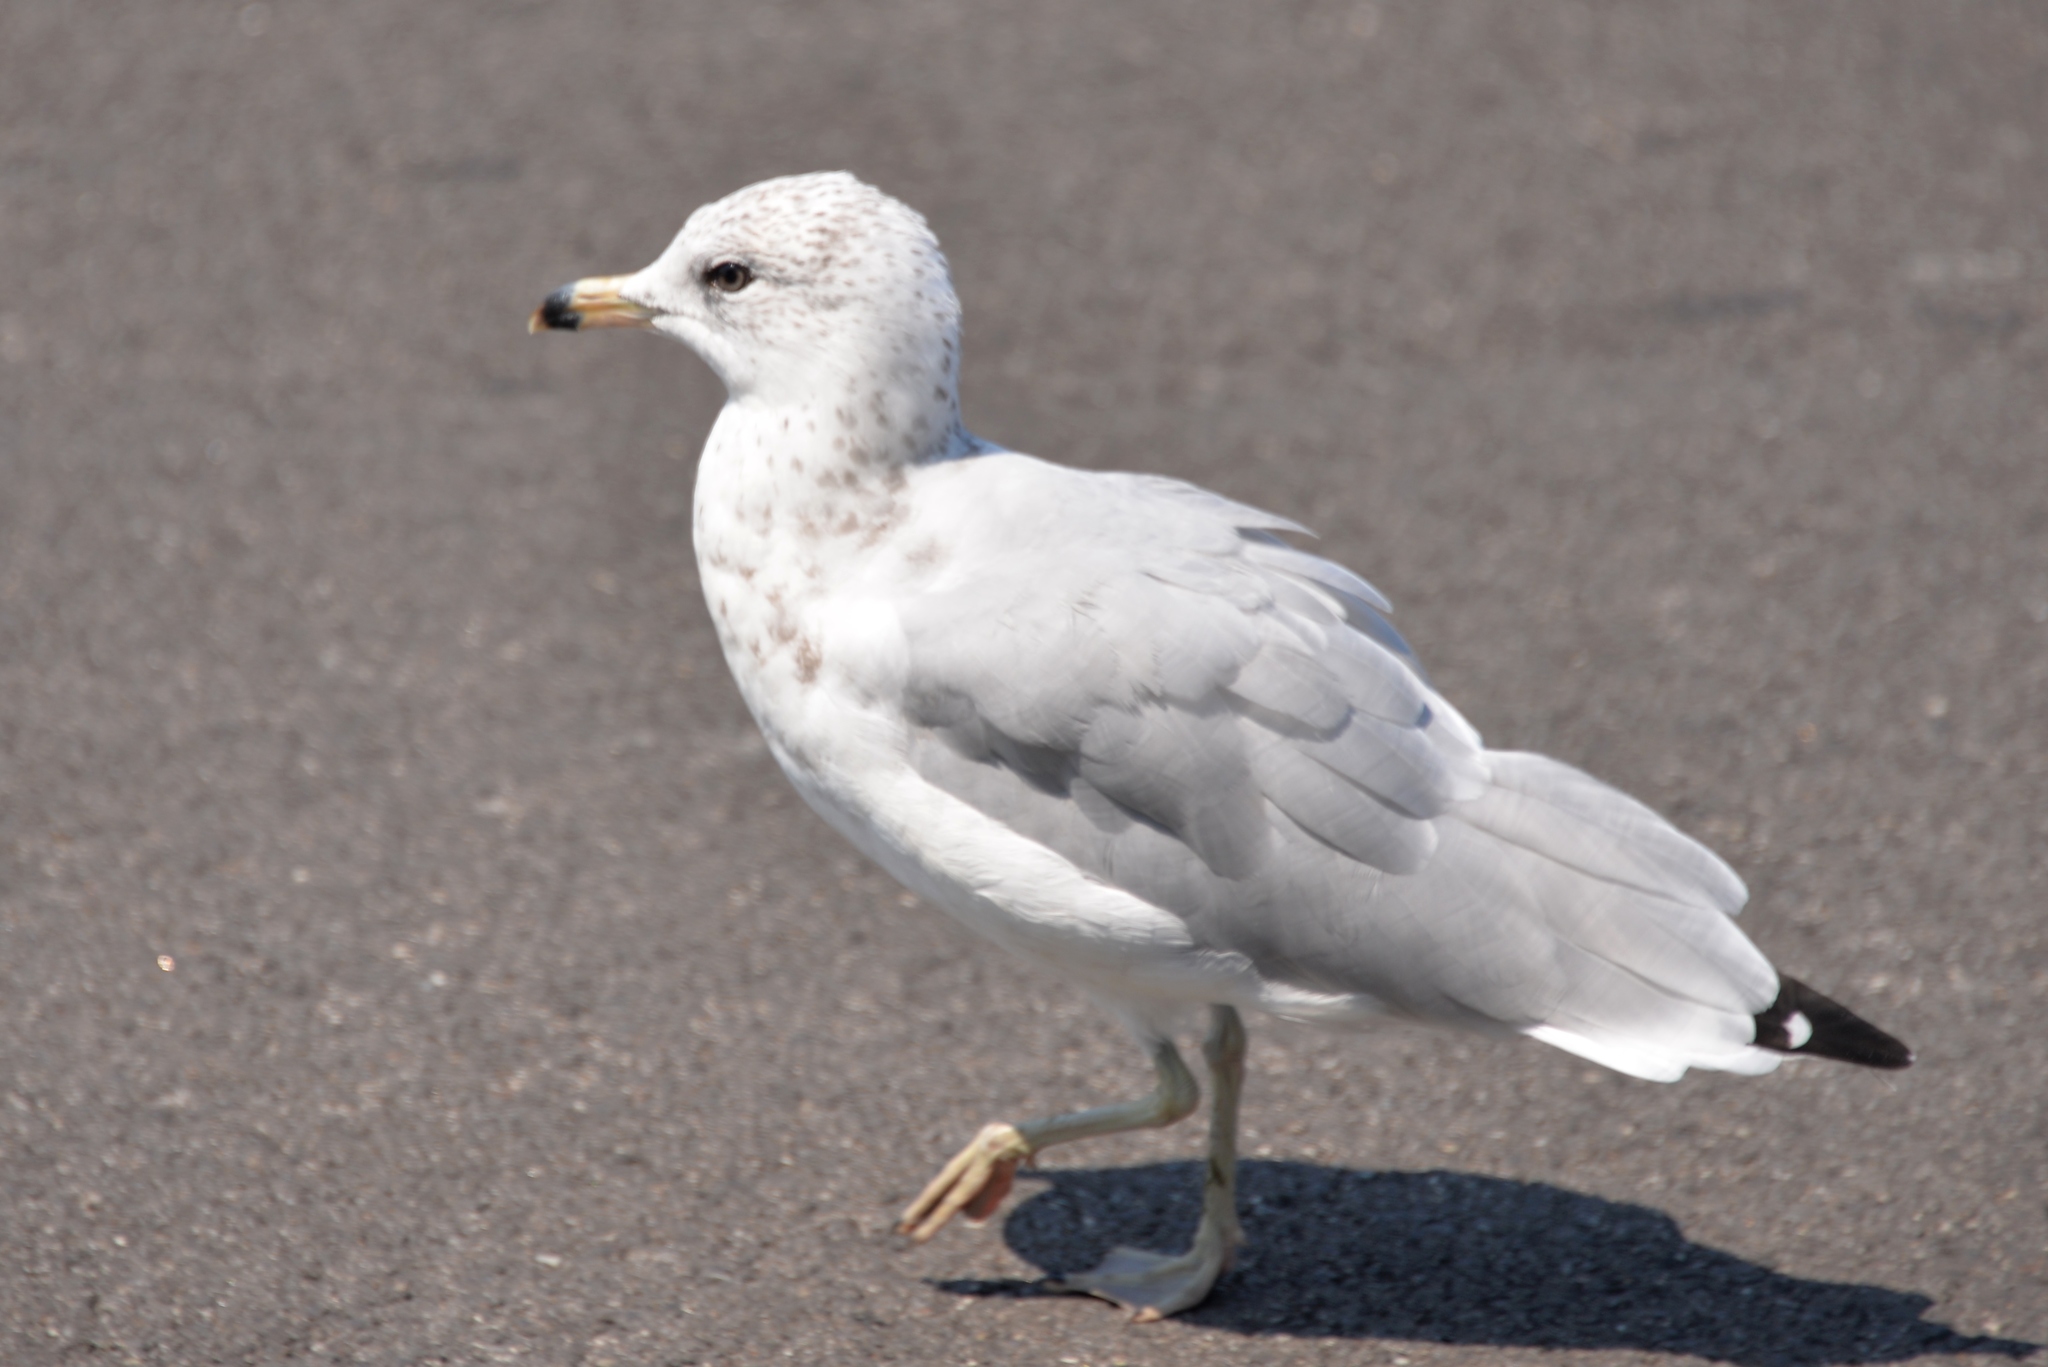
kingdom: Animalia
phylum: Chordata
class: Aves
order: Charadriiformes
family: Laridae
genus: Larus
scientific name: Larus delawarensis
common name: Ring-billed gull
